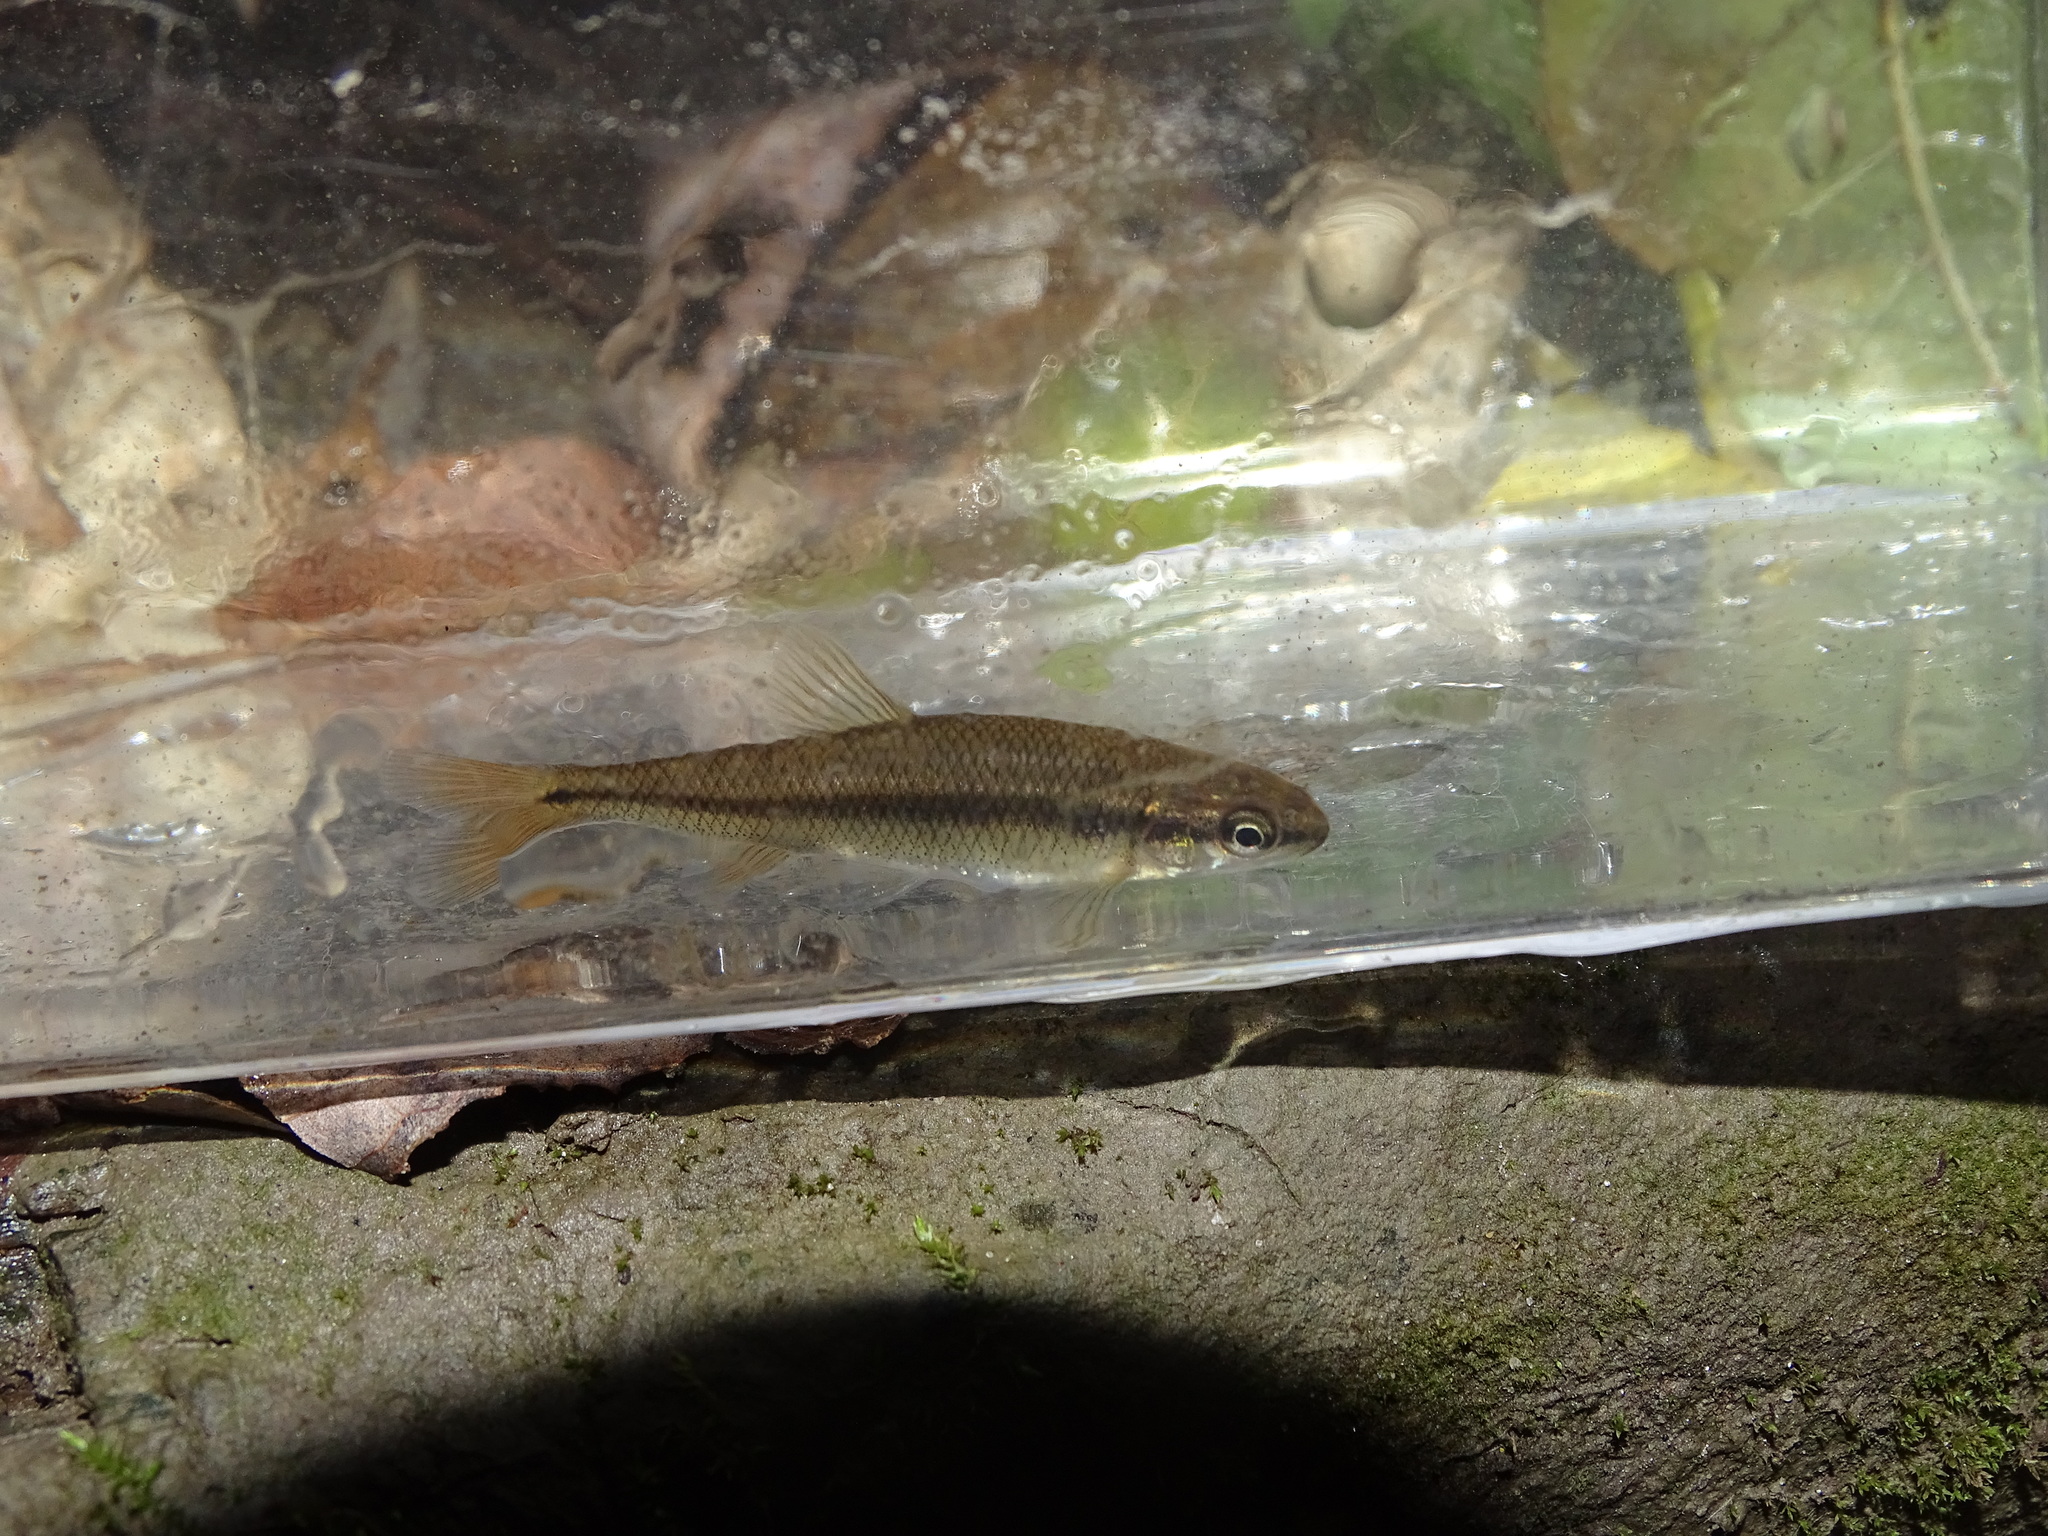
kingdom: Animalia
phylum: Chordata
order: Cypriniformes
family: Cyprinidae
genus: Pimephales
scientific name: Pimephales notatus
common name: Bluntnose minnow
